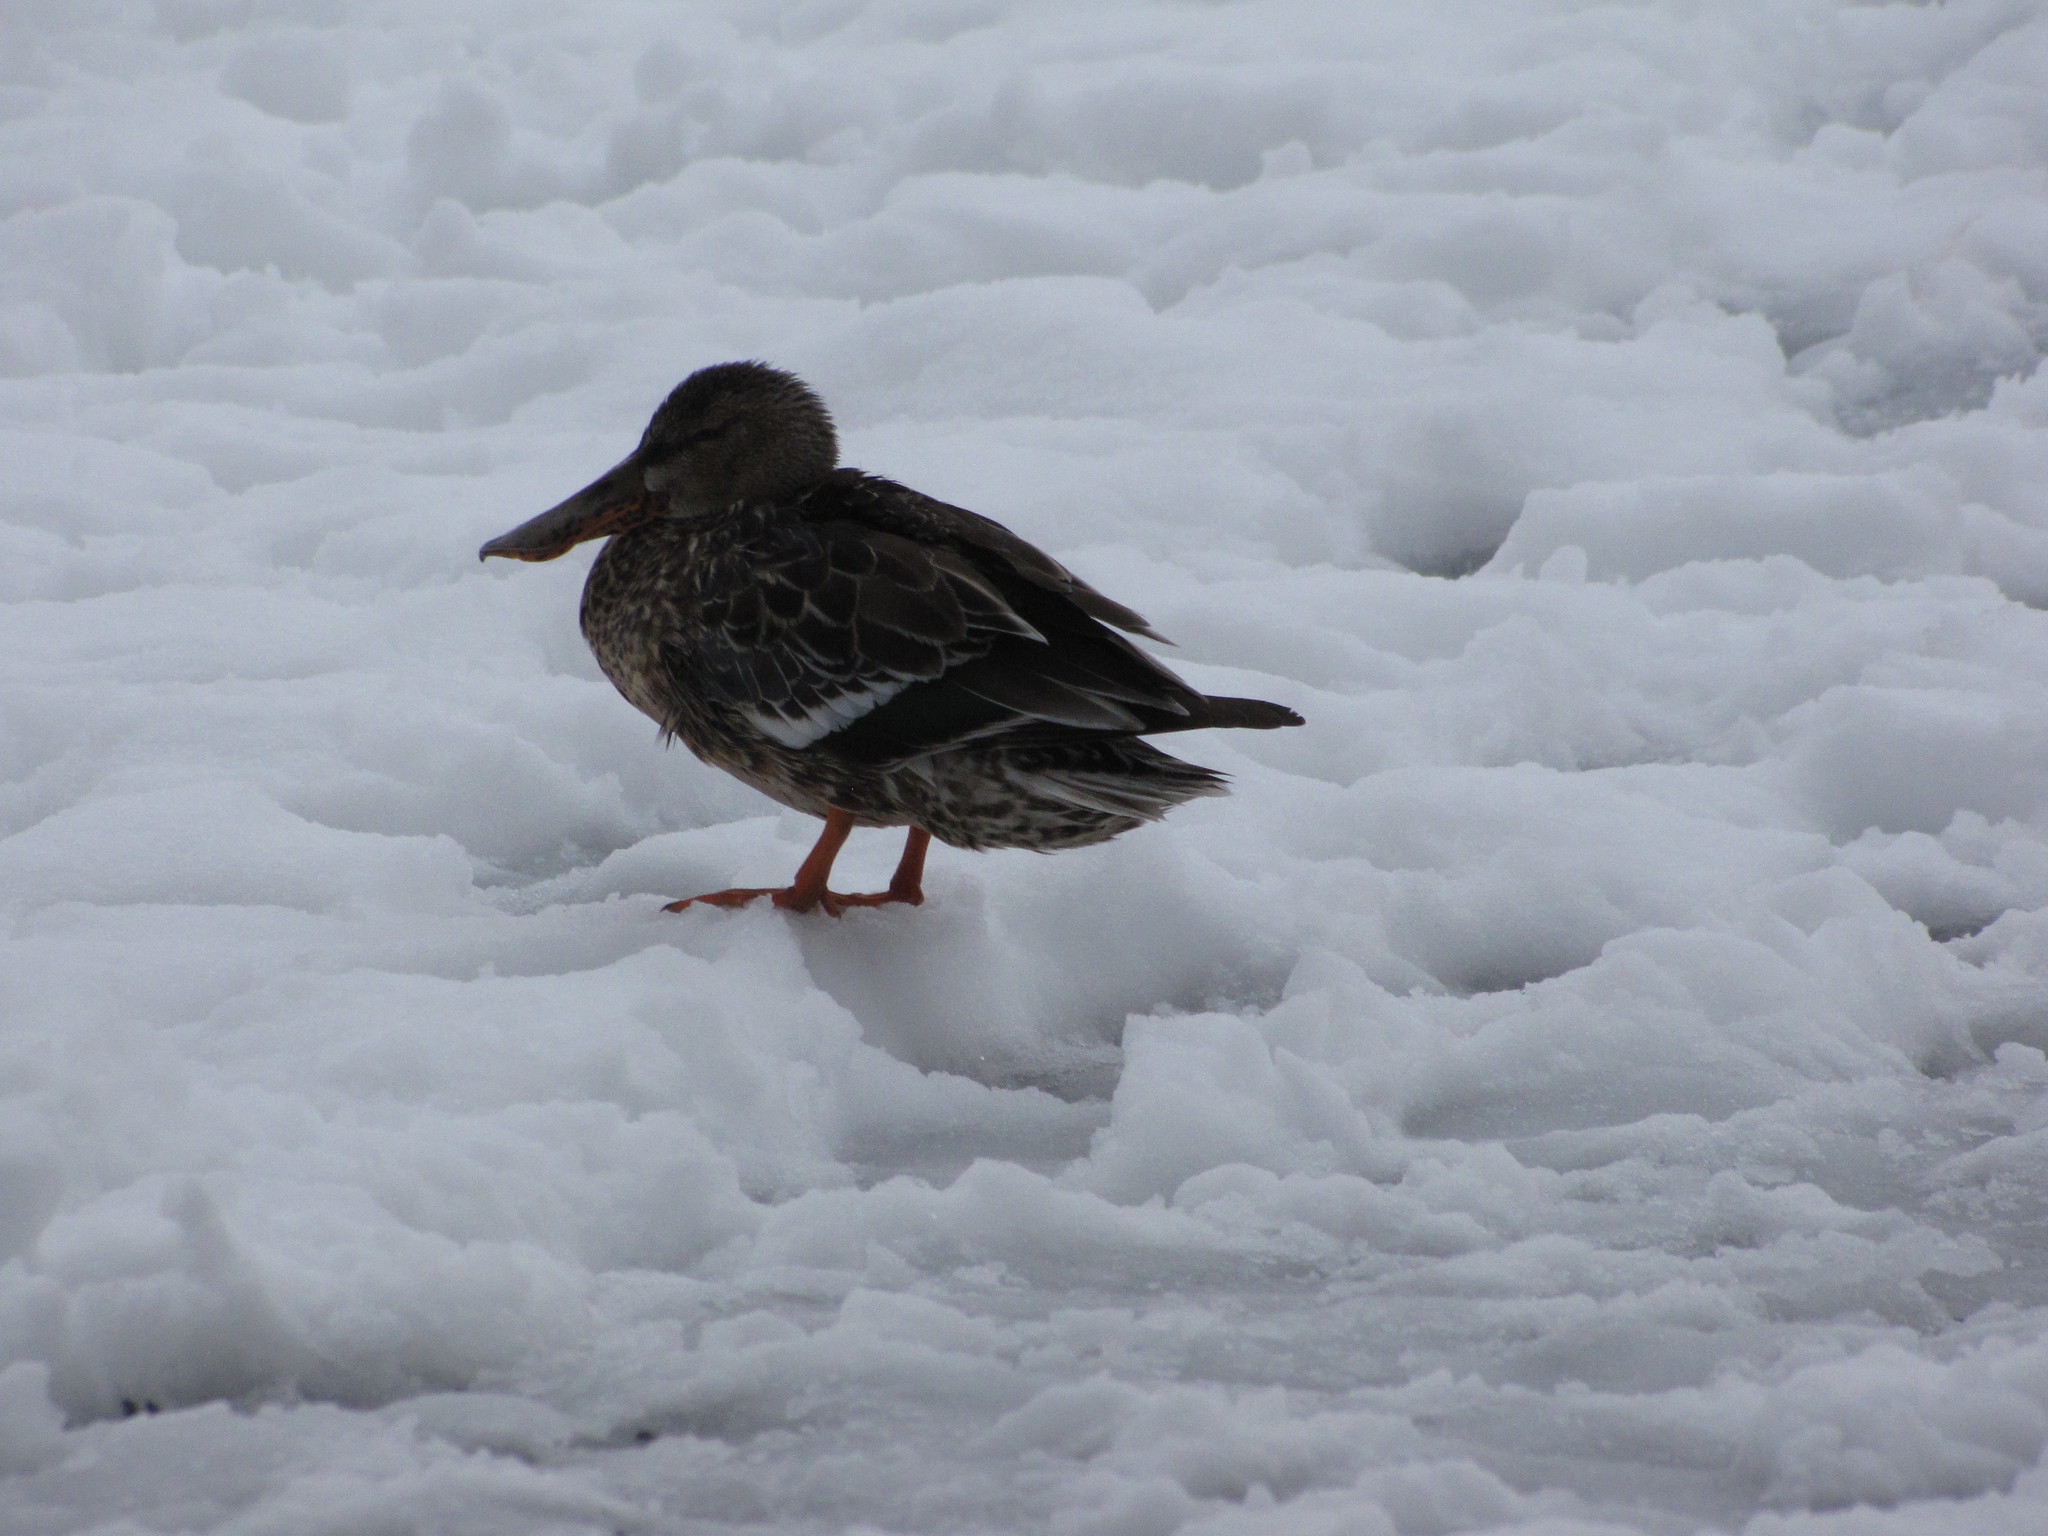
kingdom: Animalia
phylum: Chordata
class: Aves
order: Anseriformes
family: Anatidae
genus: Spatula
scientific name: Spatula clypeata
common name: Northern shoveler
